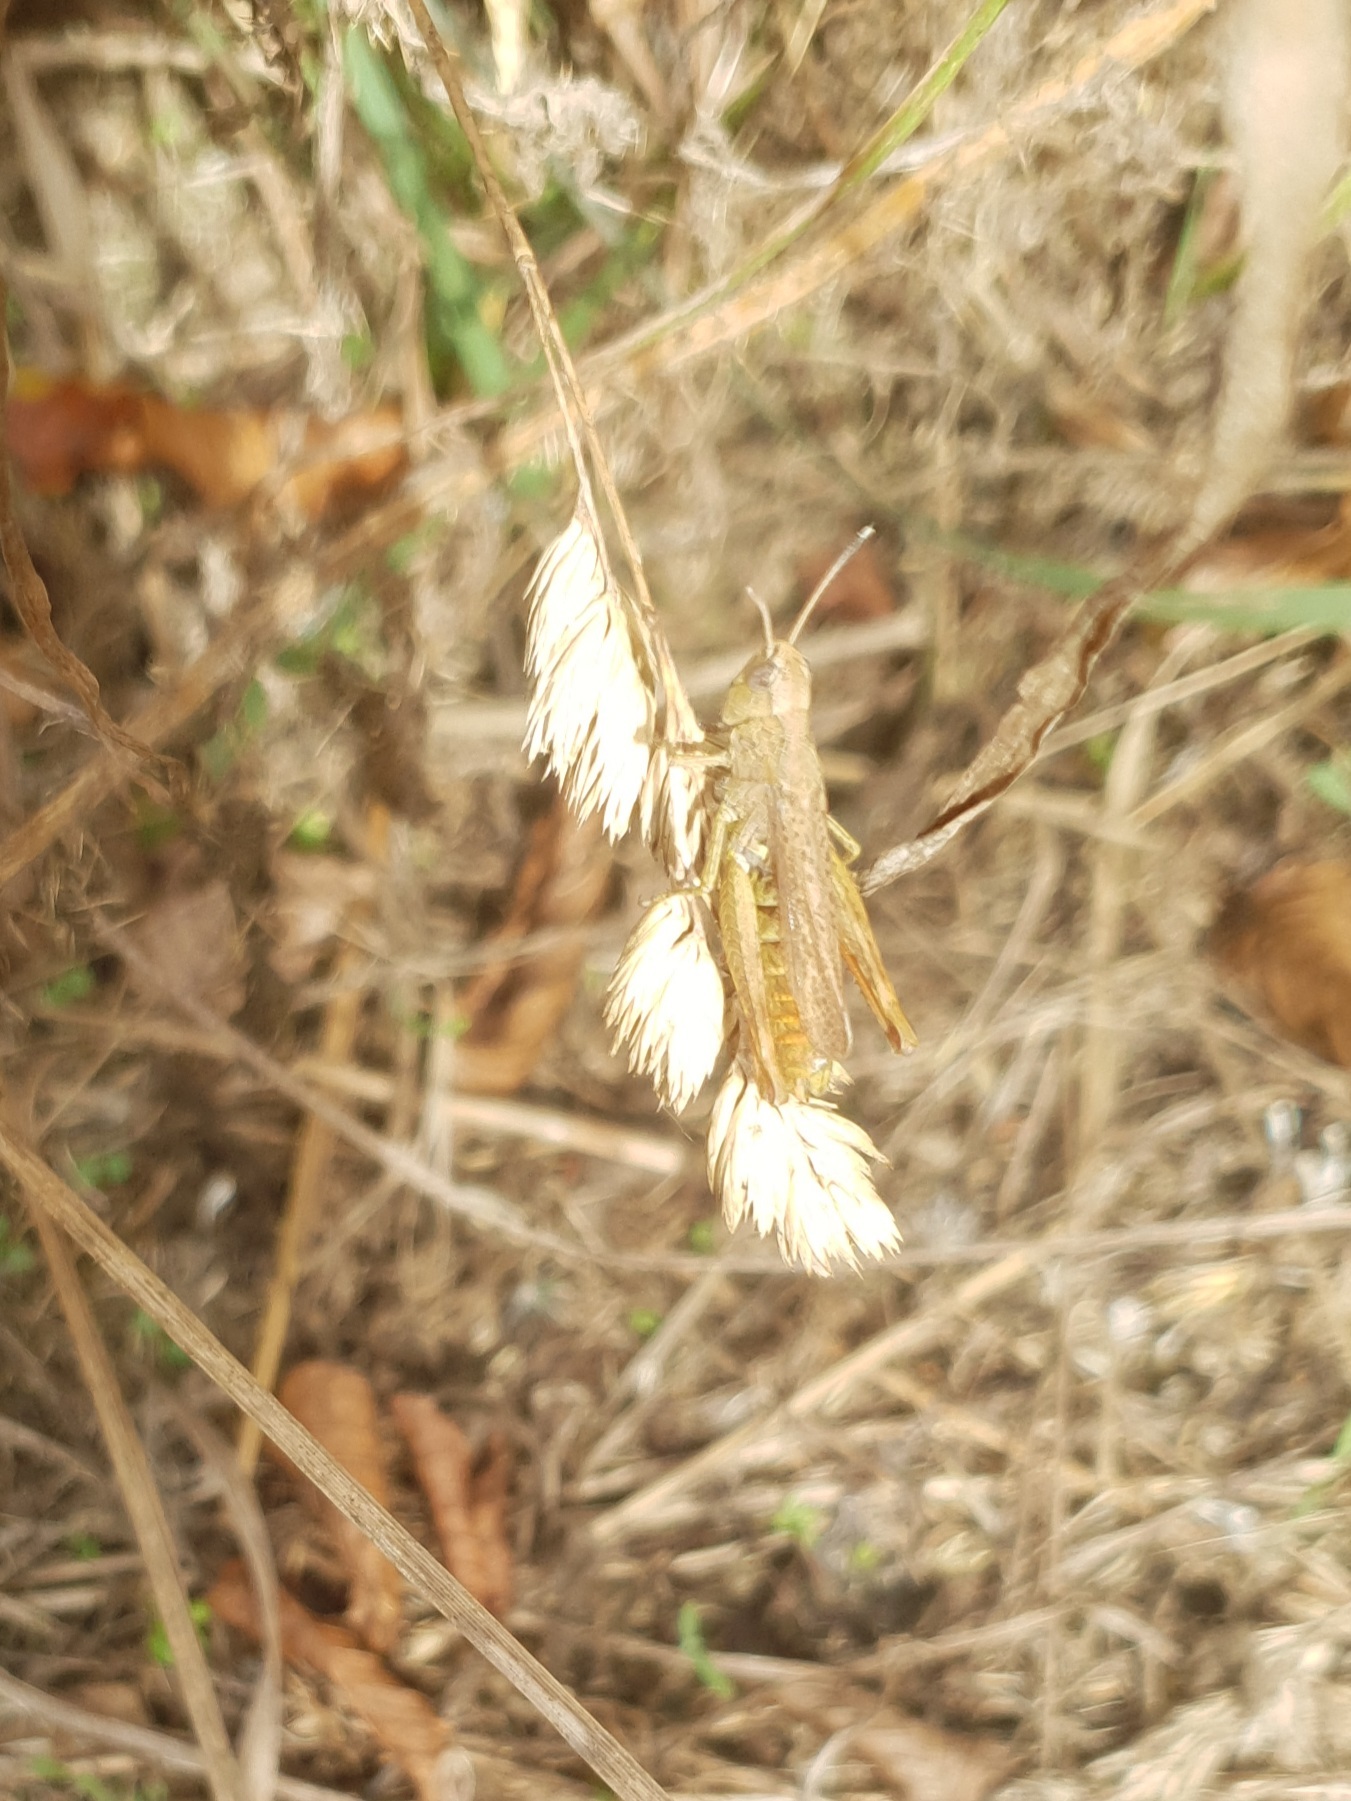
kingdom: Animalia
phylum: Arthropoda
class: Insecta
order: Orthoptera
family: Acrididae
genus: Gomphocerippus
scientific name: Gomphocerippus rufus
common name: Rufous grasshopper
